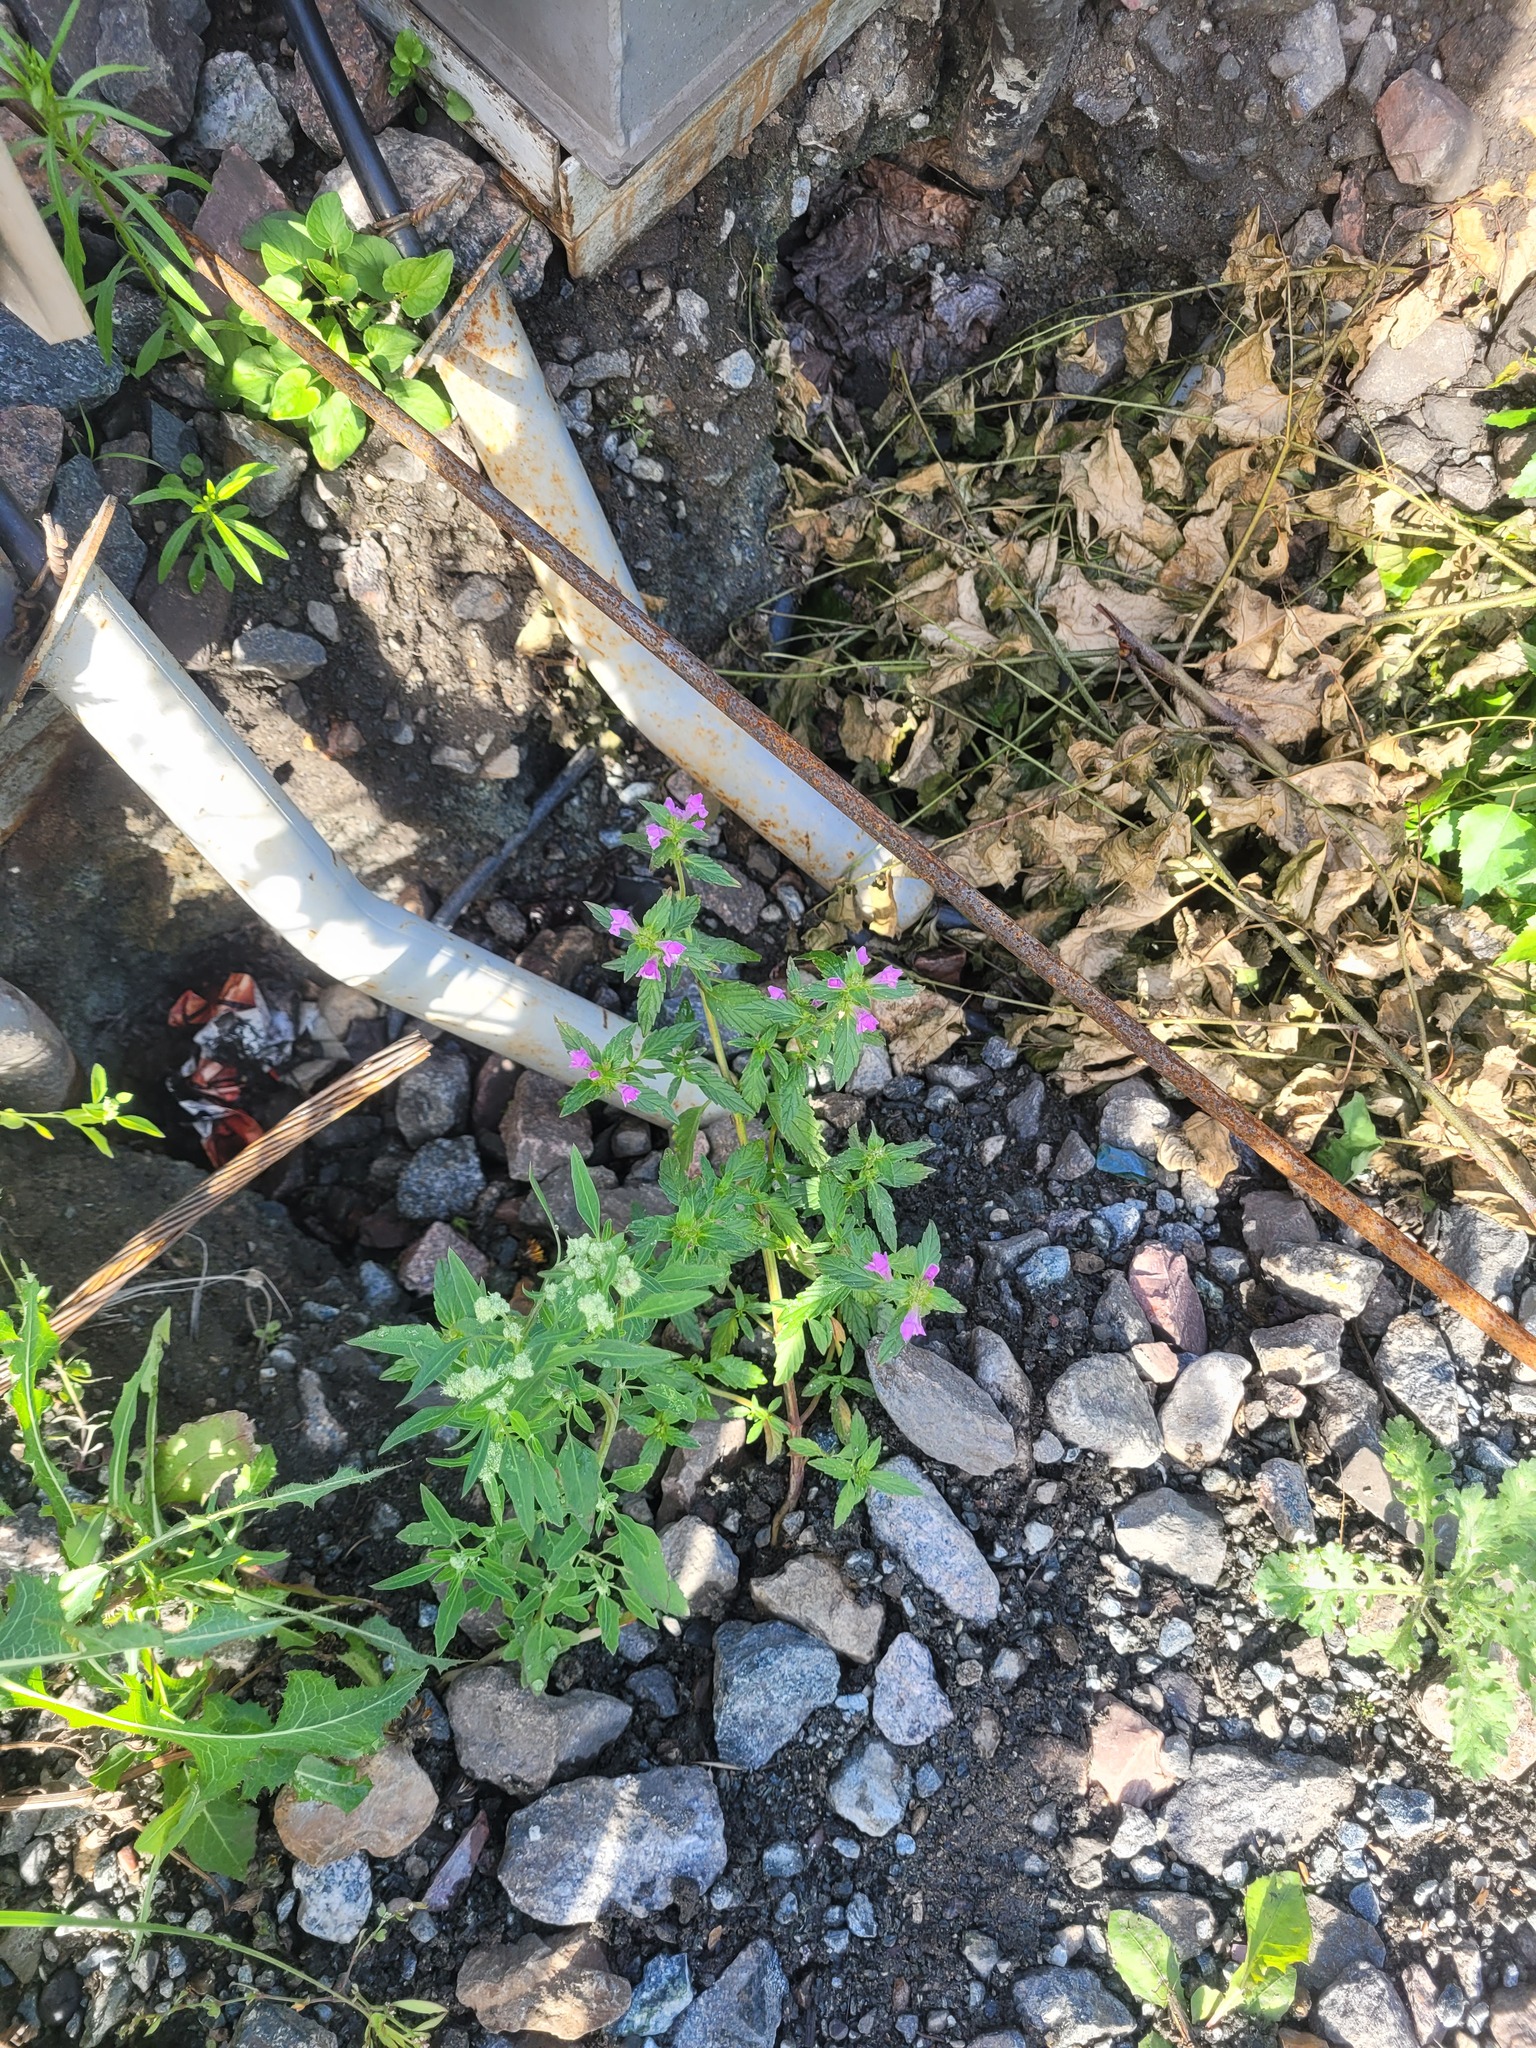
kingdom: Plantae
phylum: Tracheophyta
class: Magnoliopsida
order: Lamiales
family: Lamiaceae
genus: Galeopsis
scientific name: Galeopsis ladanum
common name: Broad-leaved hemp-nettle
